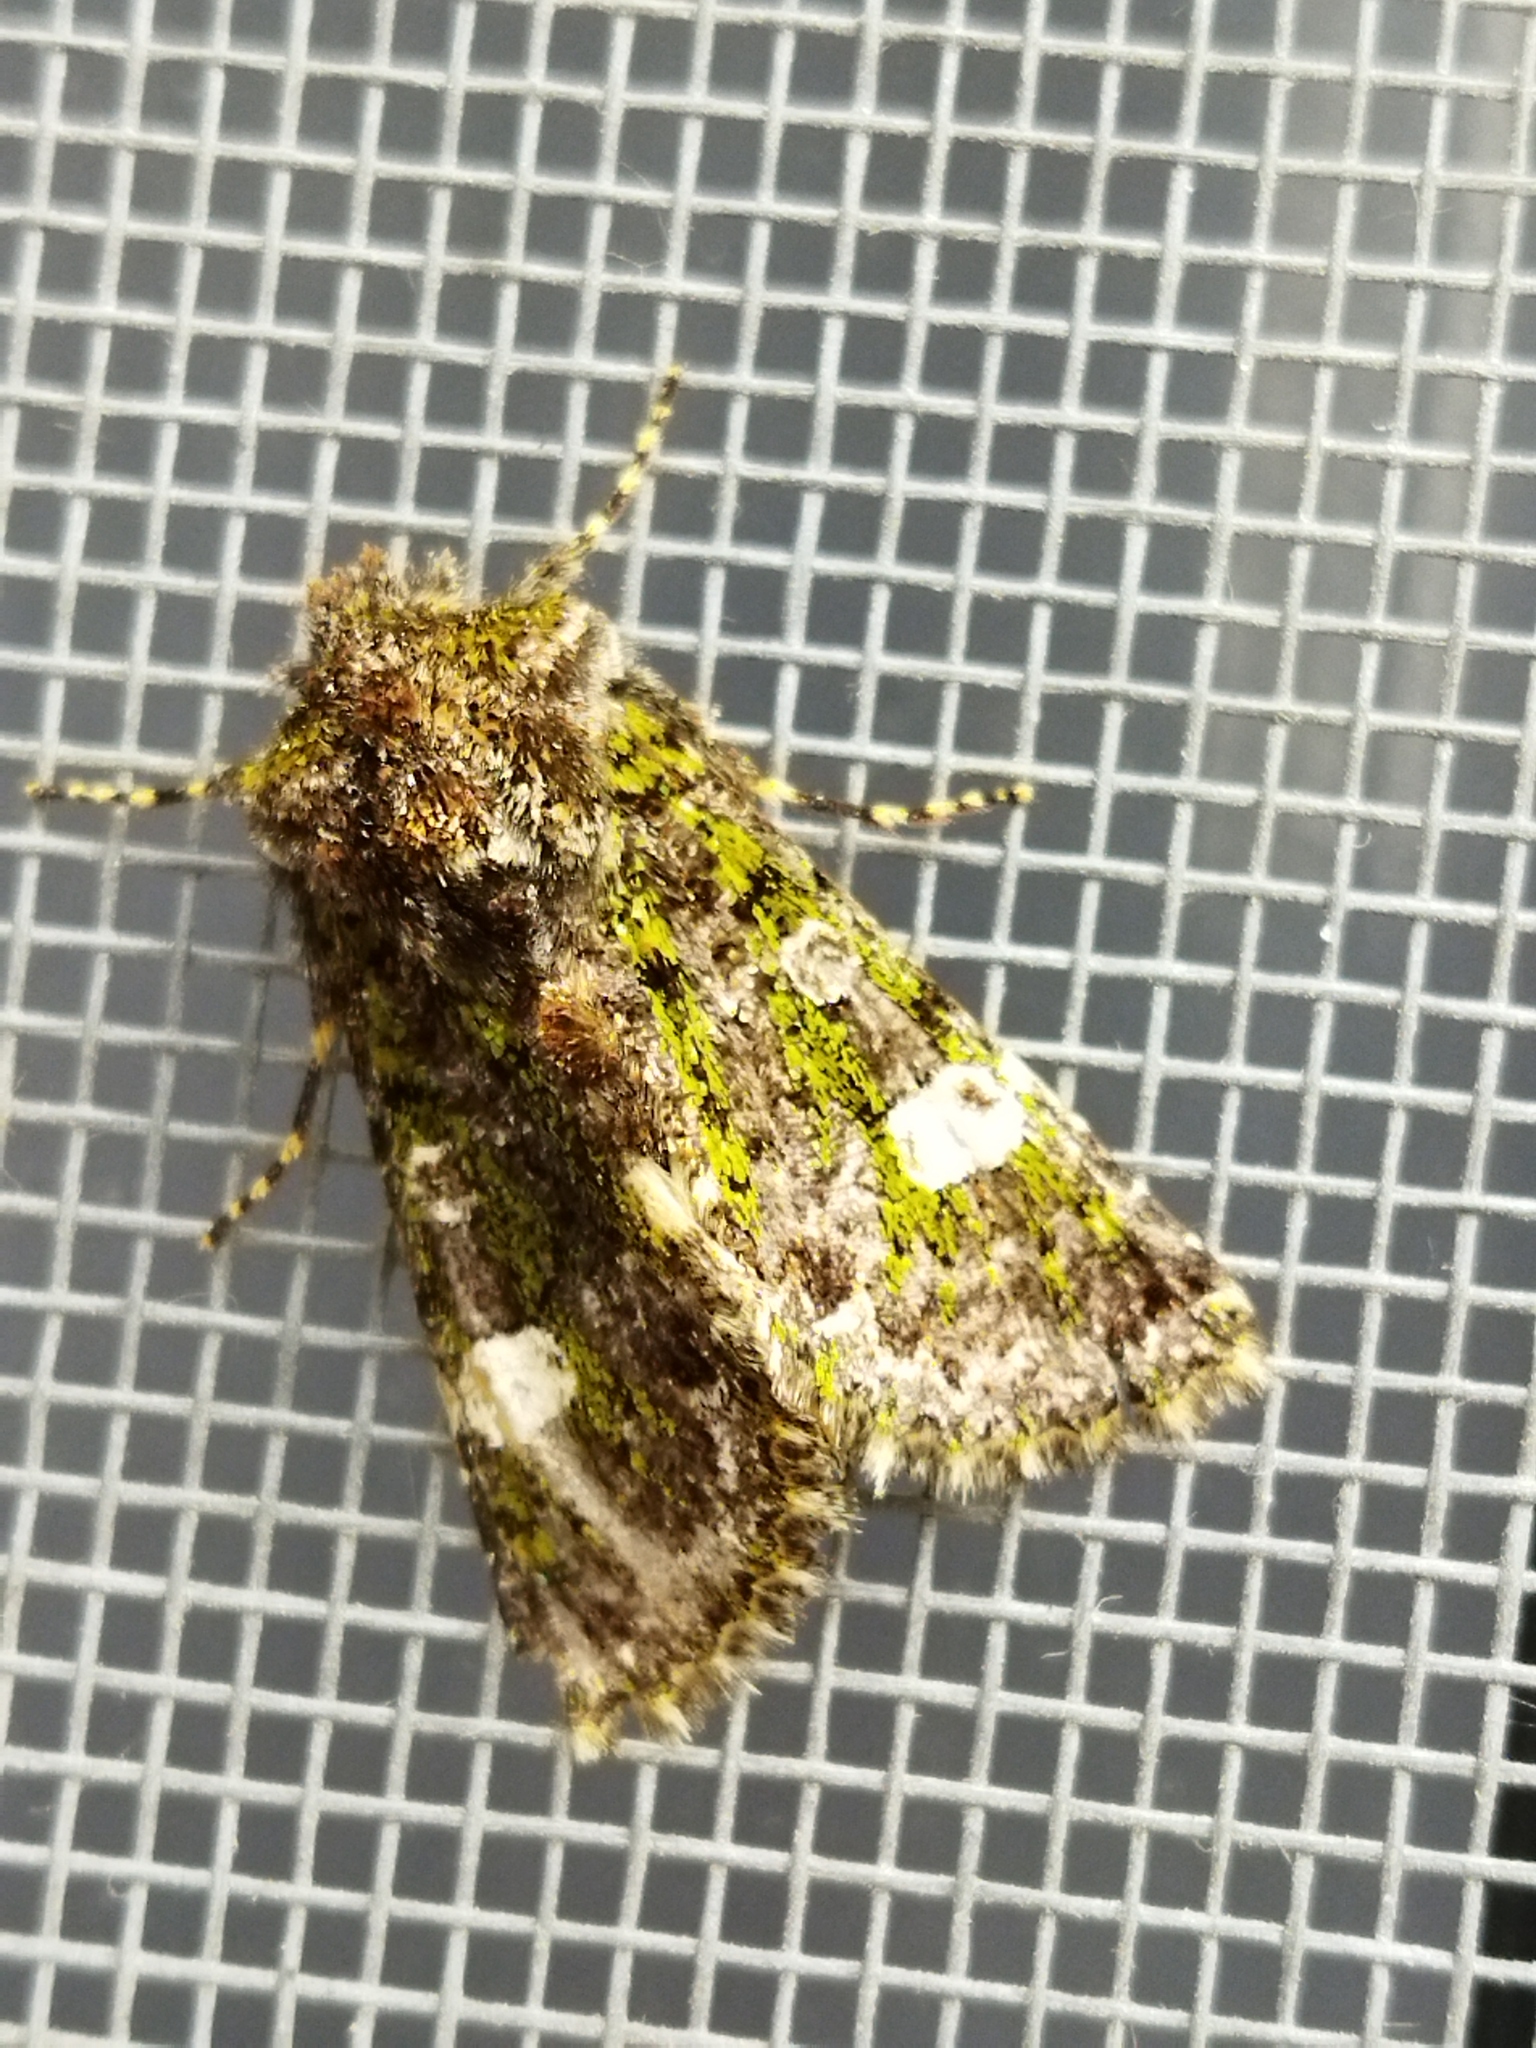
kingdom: Animalia
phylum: Arthropoda
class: Insecta
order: Lepidoptera
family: Noctuidae
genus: Valeria
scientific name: Valeria oleagina
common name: Green-brindled dot
